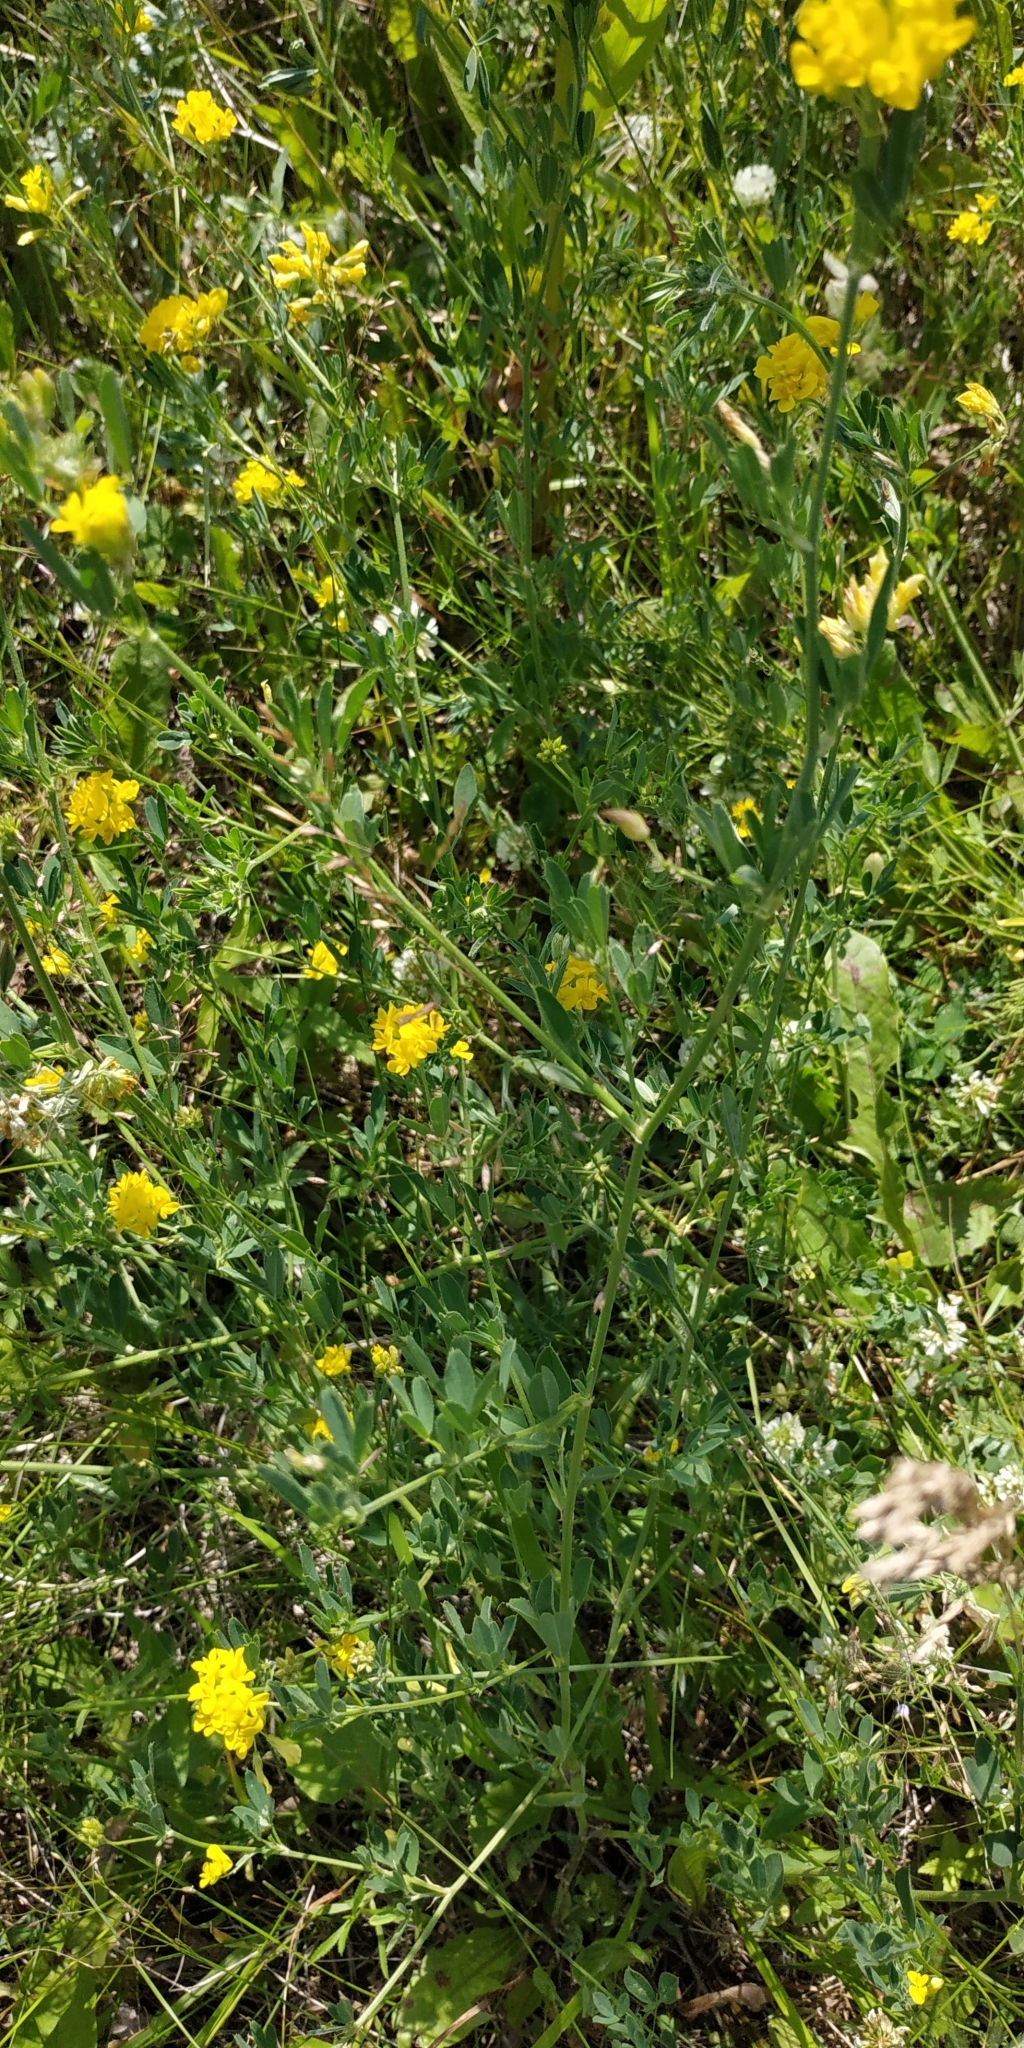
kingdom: Plantae
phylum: Tracheophyta
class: Magnoliopsida
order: Fabales
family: Fabaceae
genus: Medicago
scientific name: Medicago falcata
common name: Sickle medick
